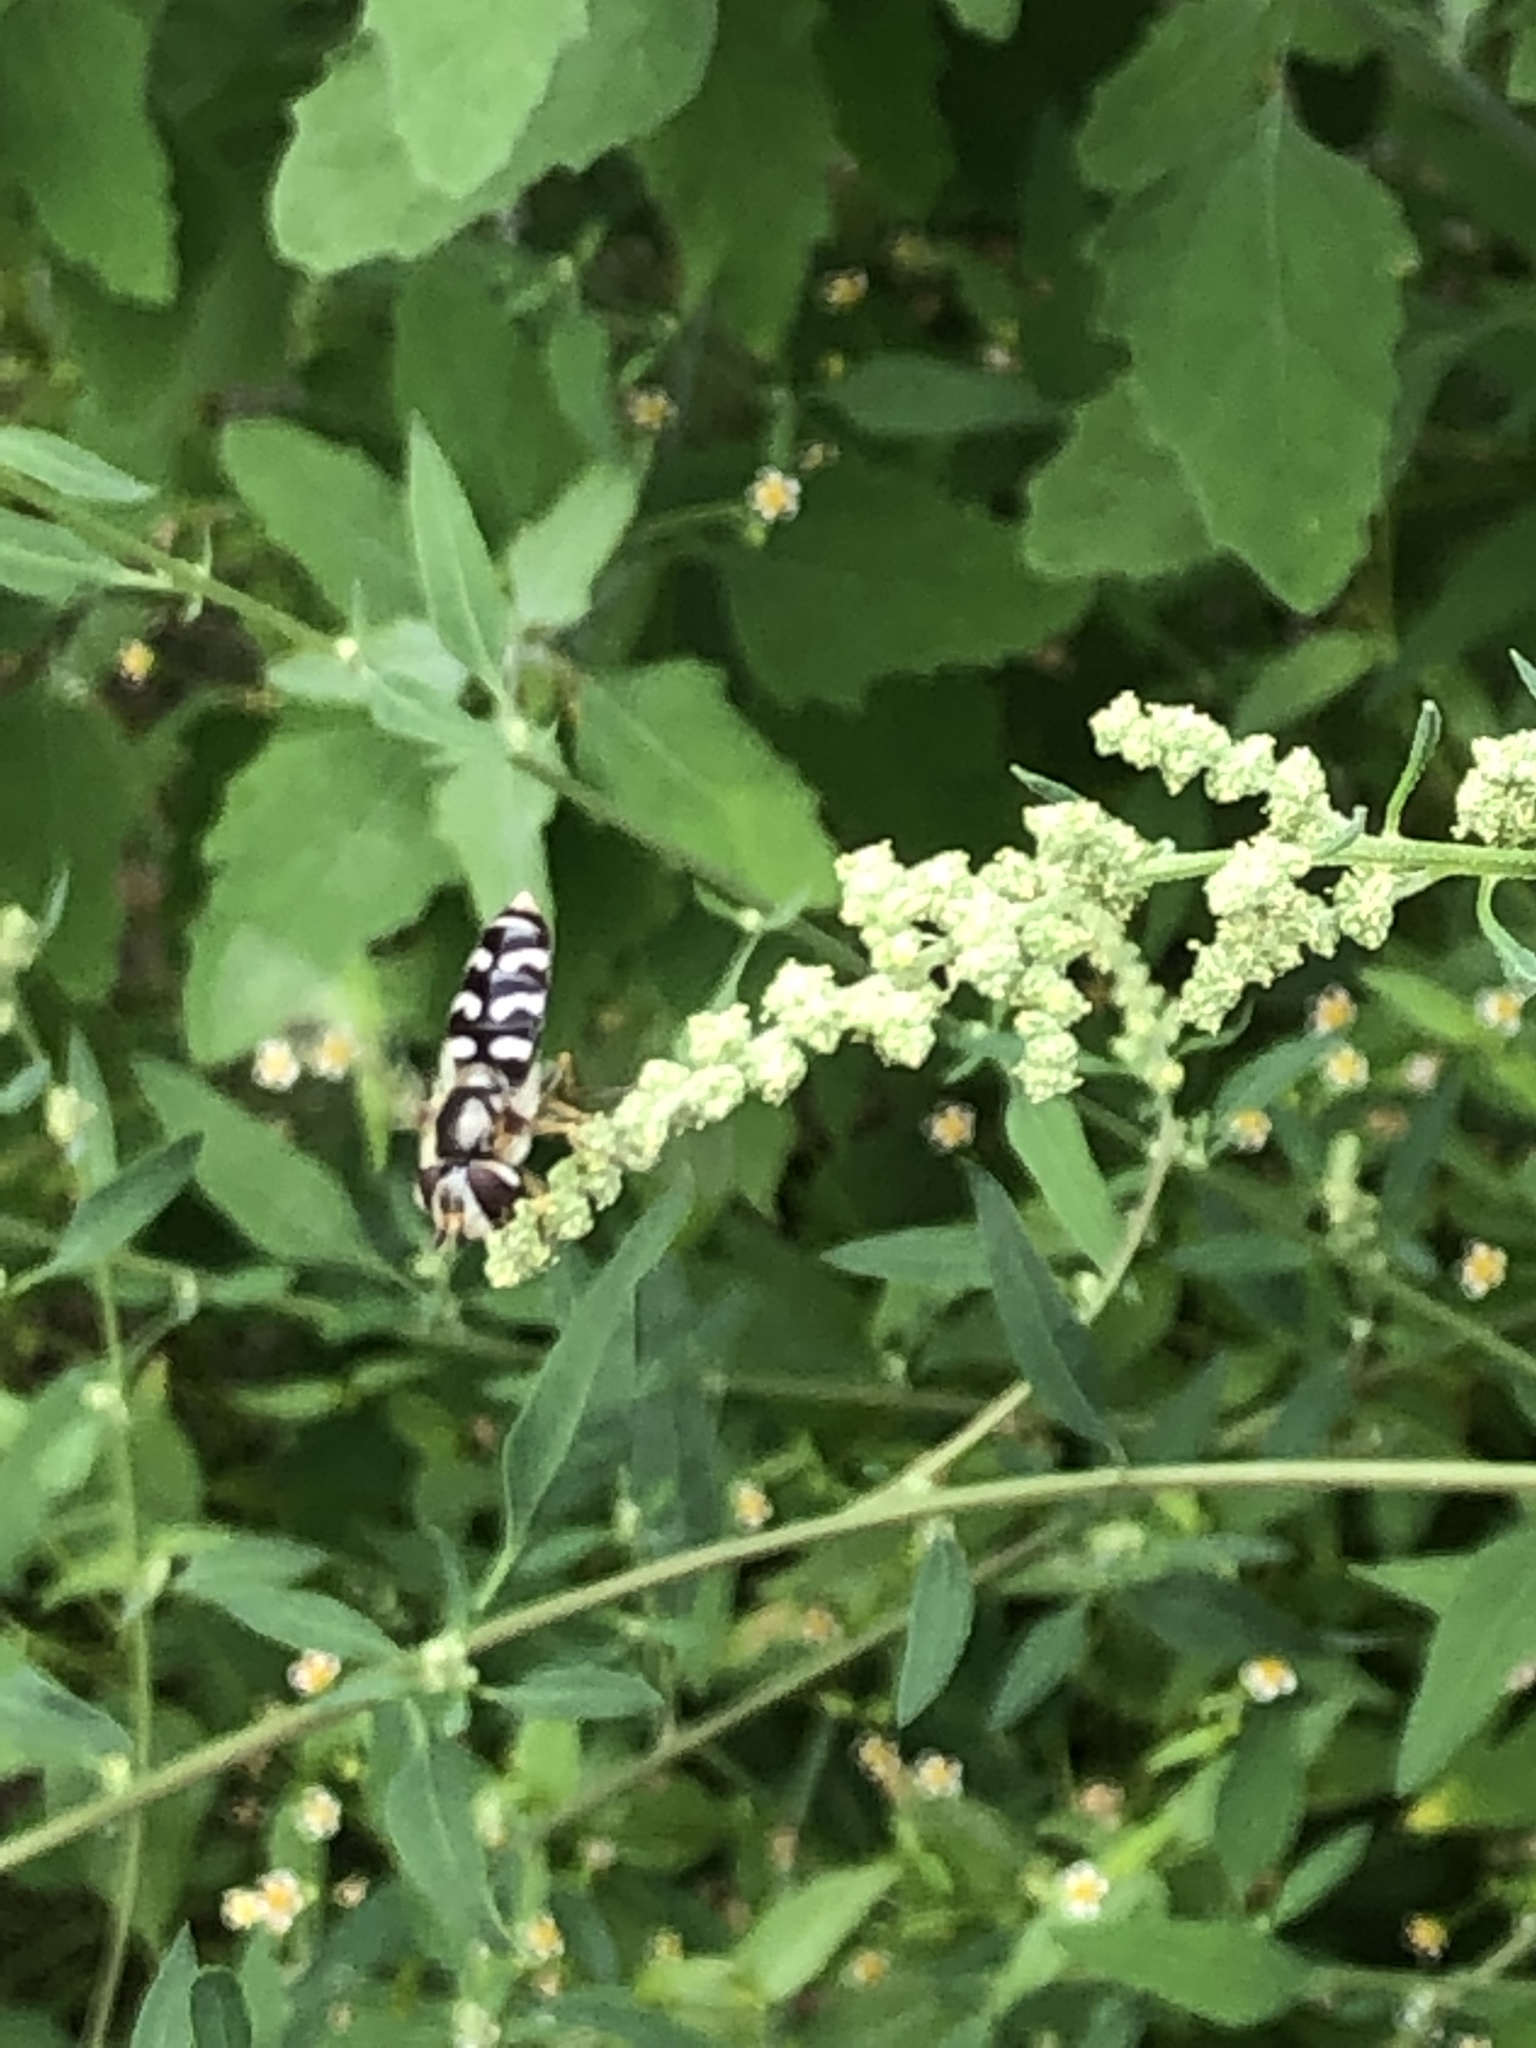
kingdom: Animalia
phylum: Arthropoda
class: Insecta
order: Diptera
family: Syrphidae
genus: Scaeva
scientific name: Scaeva pyrastri
